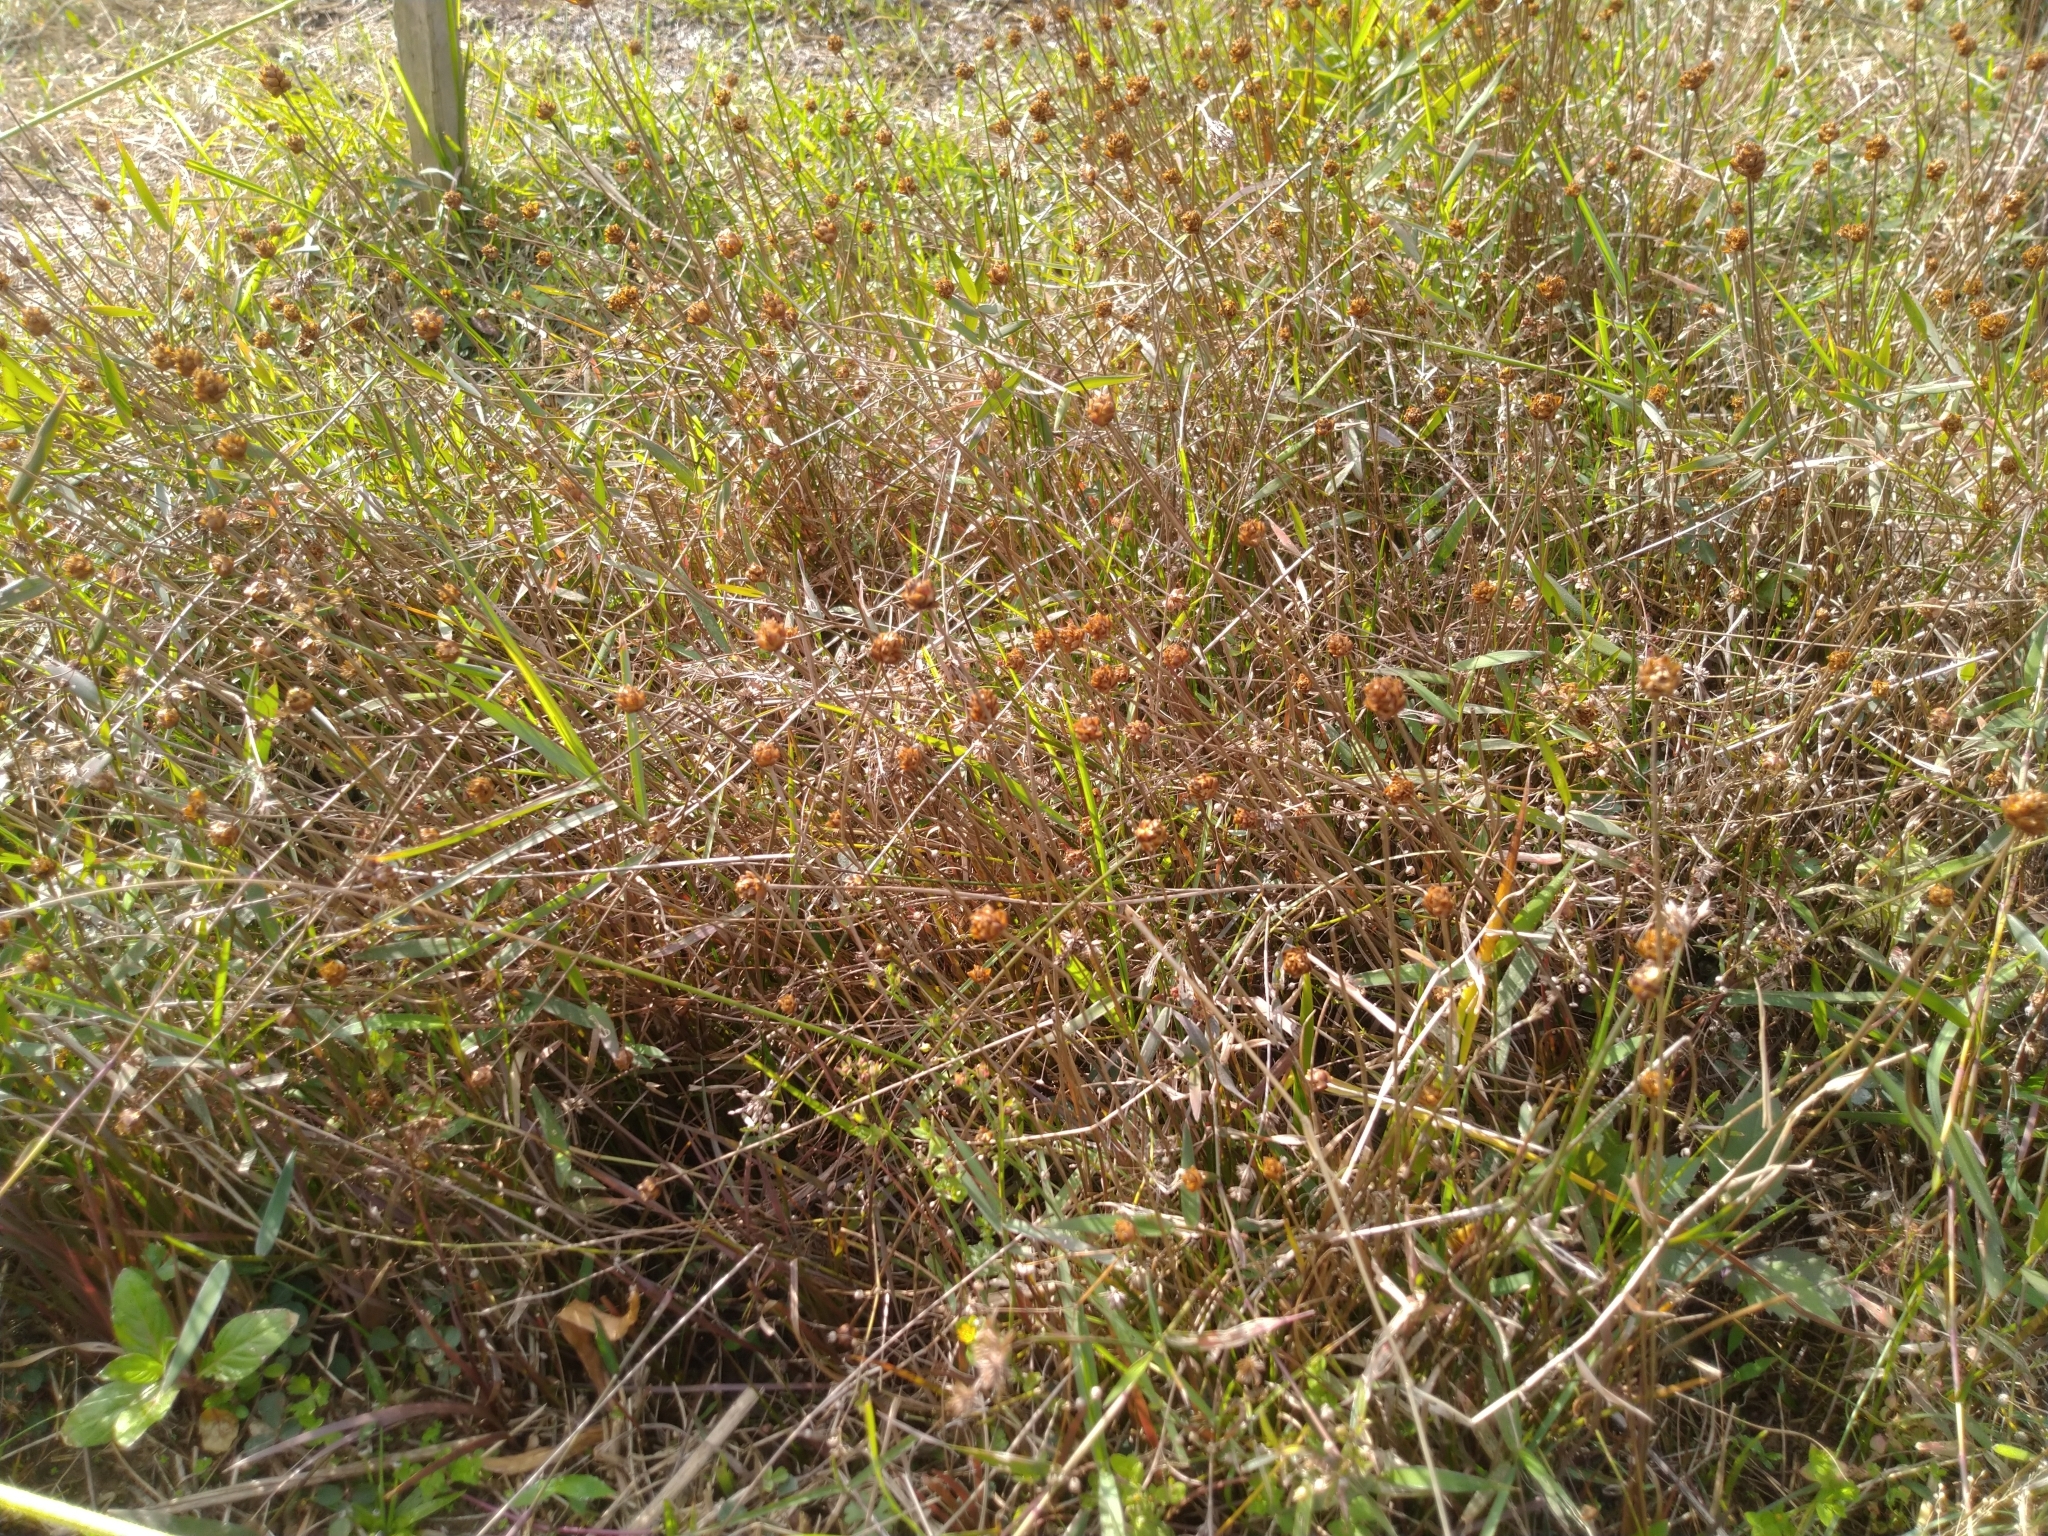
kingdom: Plantae
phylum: Tracheophyta
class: Liliopsida
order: Poales
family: Xyridaceae
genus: Xyris
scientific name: Xyris formosana
